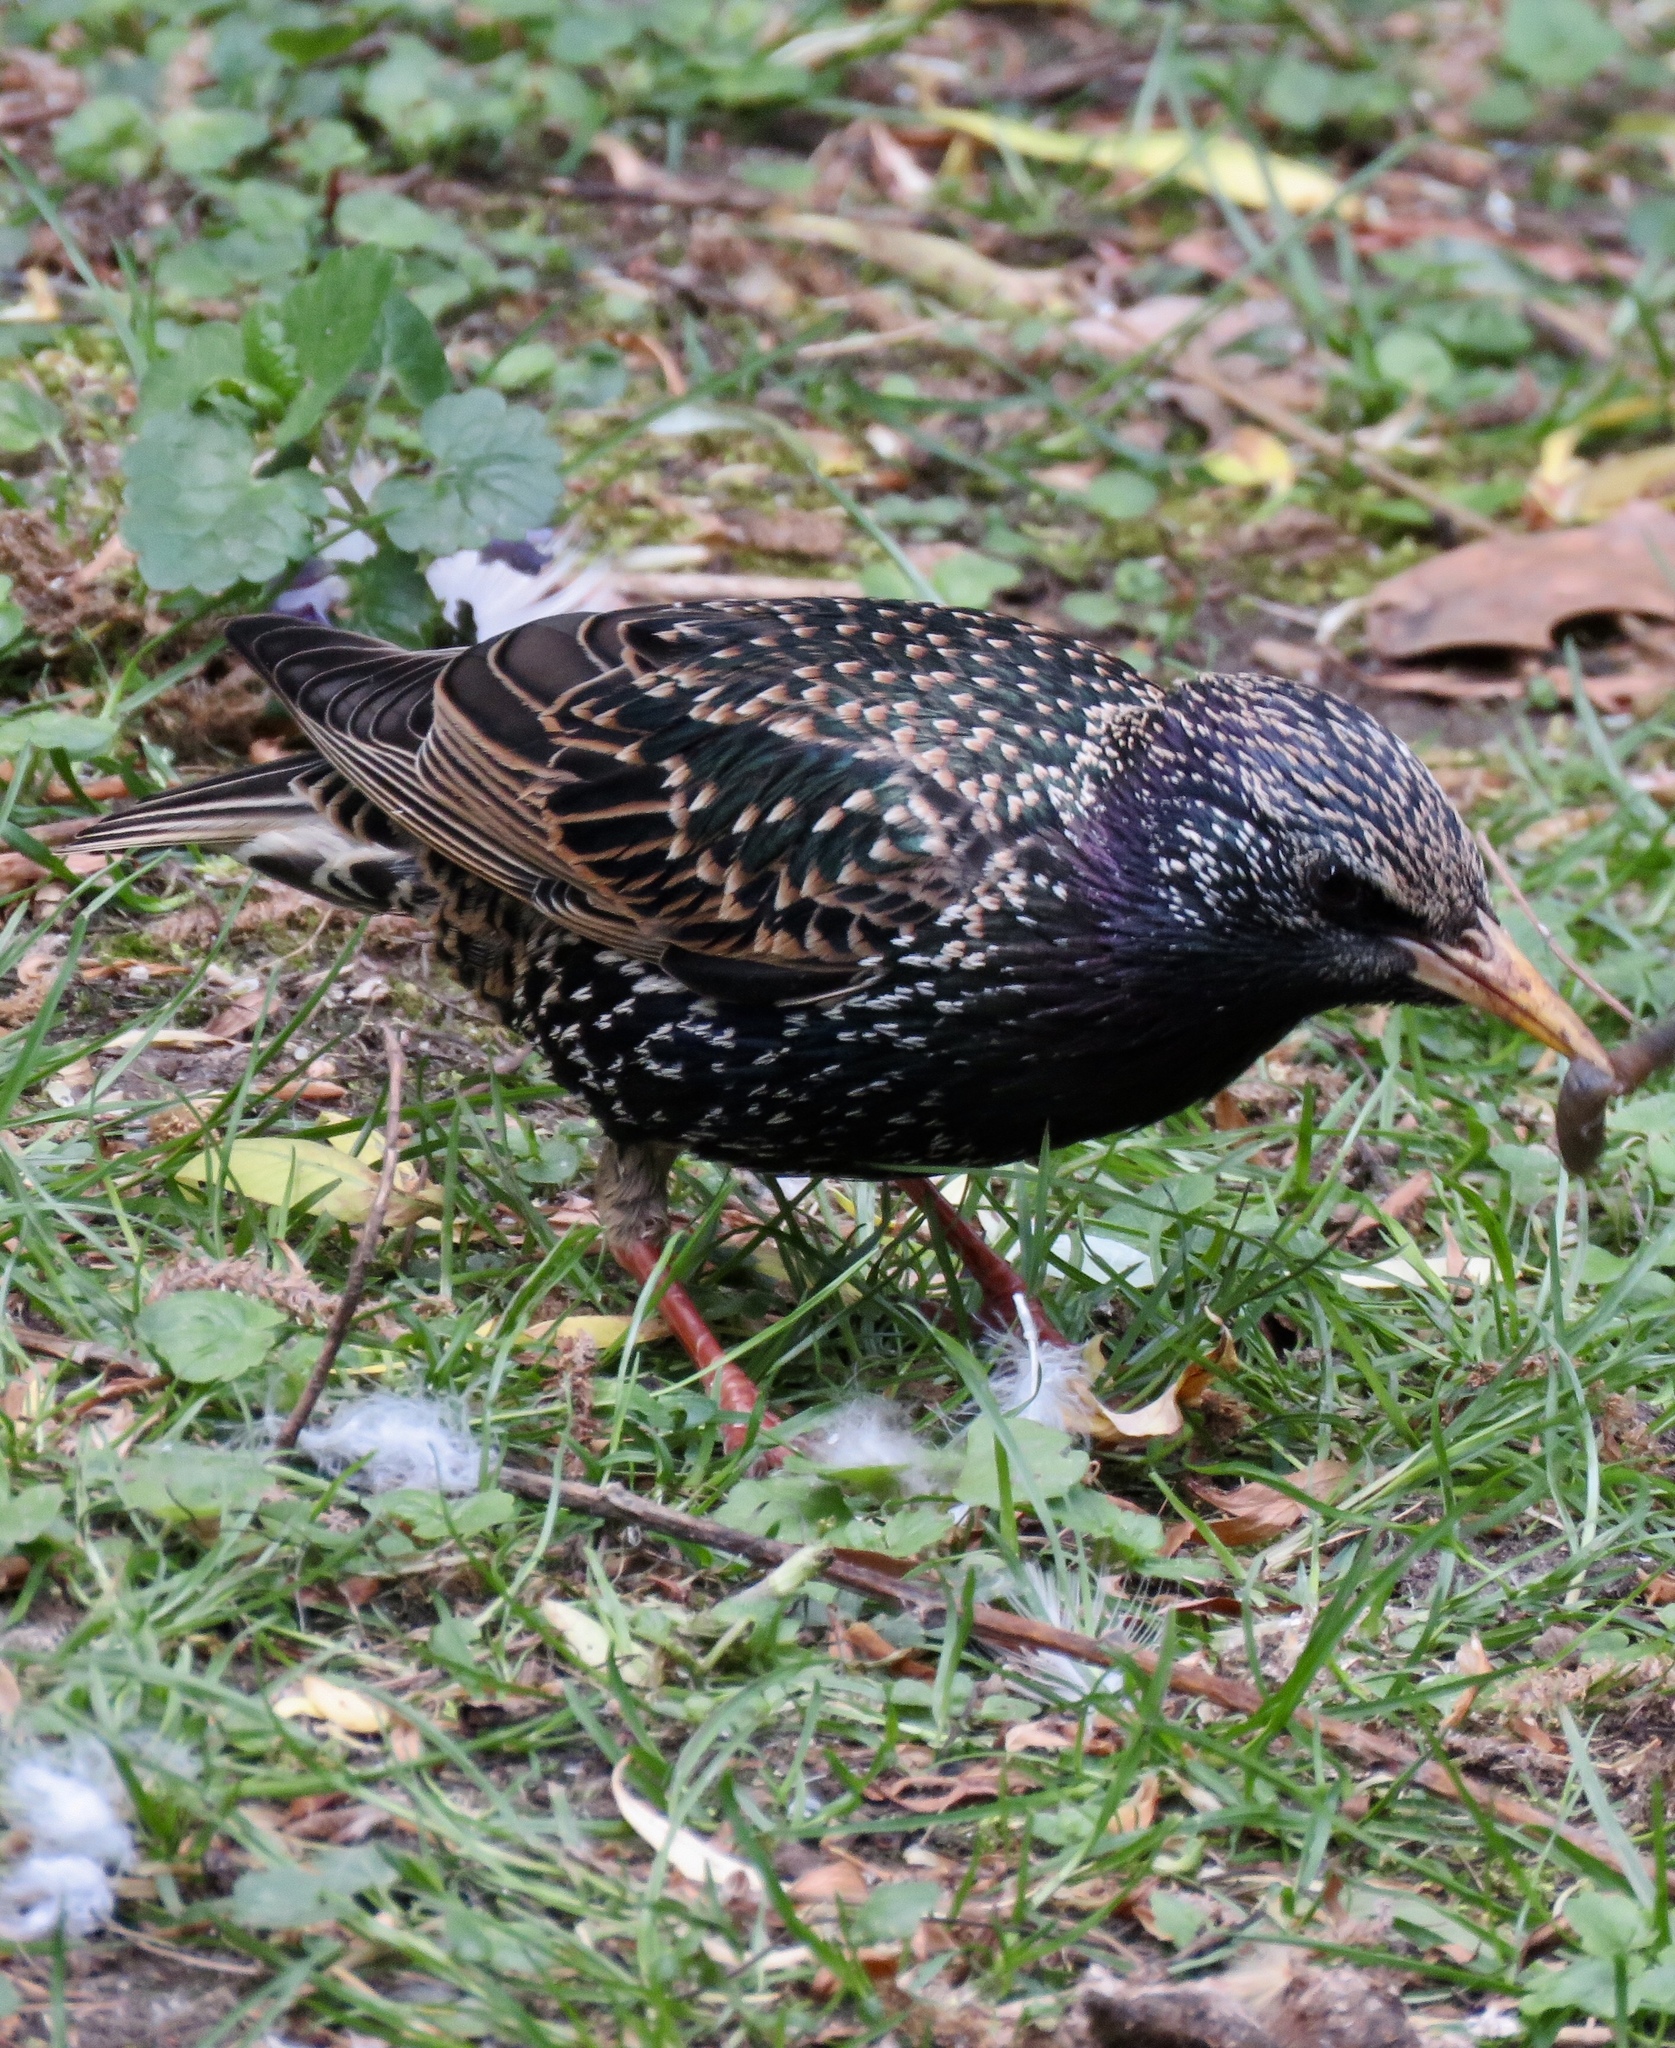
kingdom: Animalia
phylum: Chordata
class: Aves
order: Passeriformes
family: Sturnidae
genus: Sturnus
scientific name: Sturnus vulgaris
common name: Common starling
